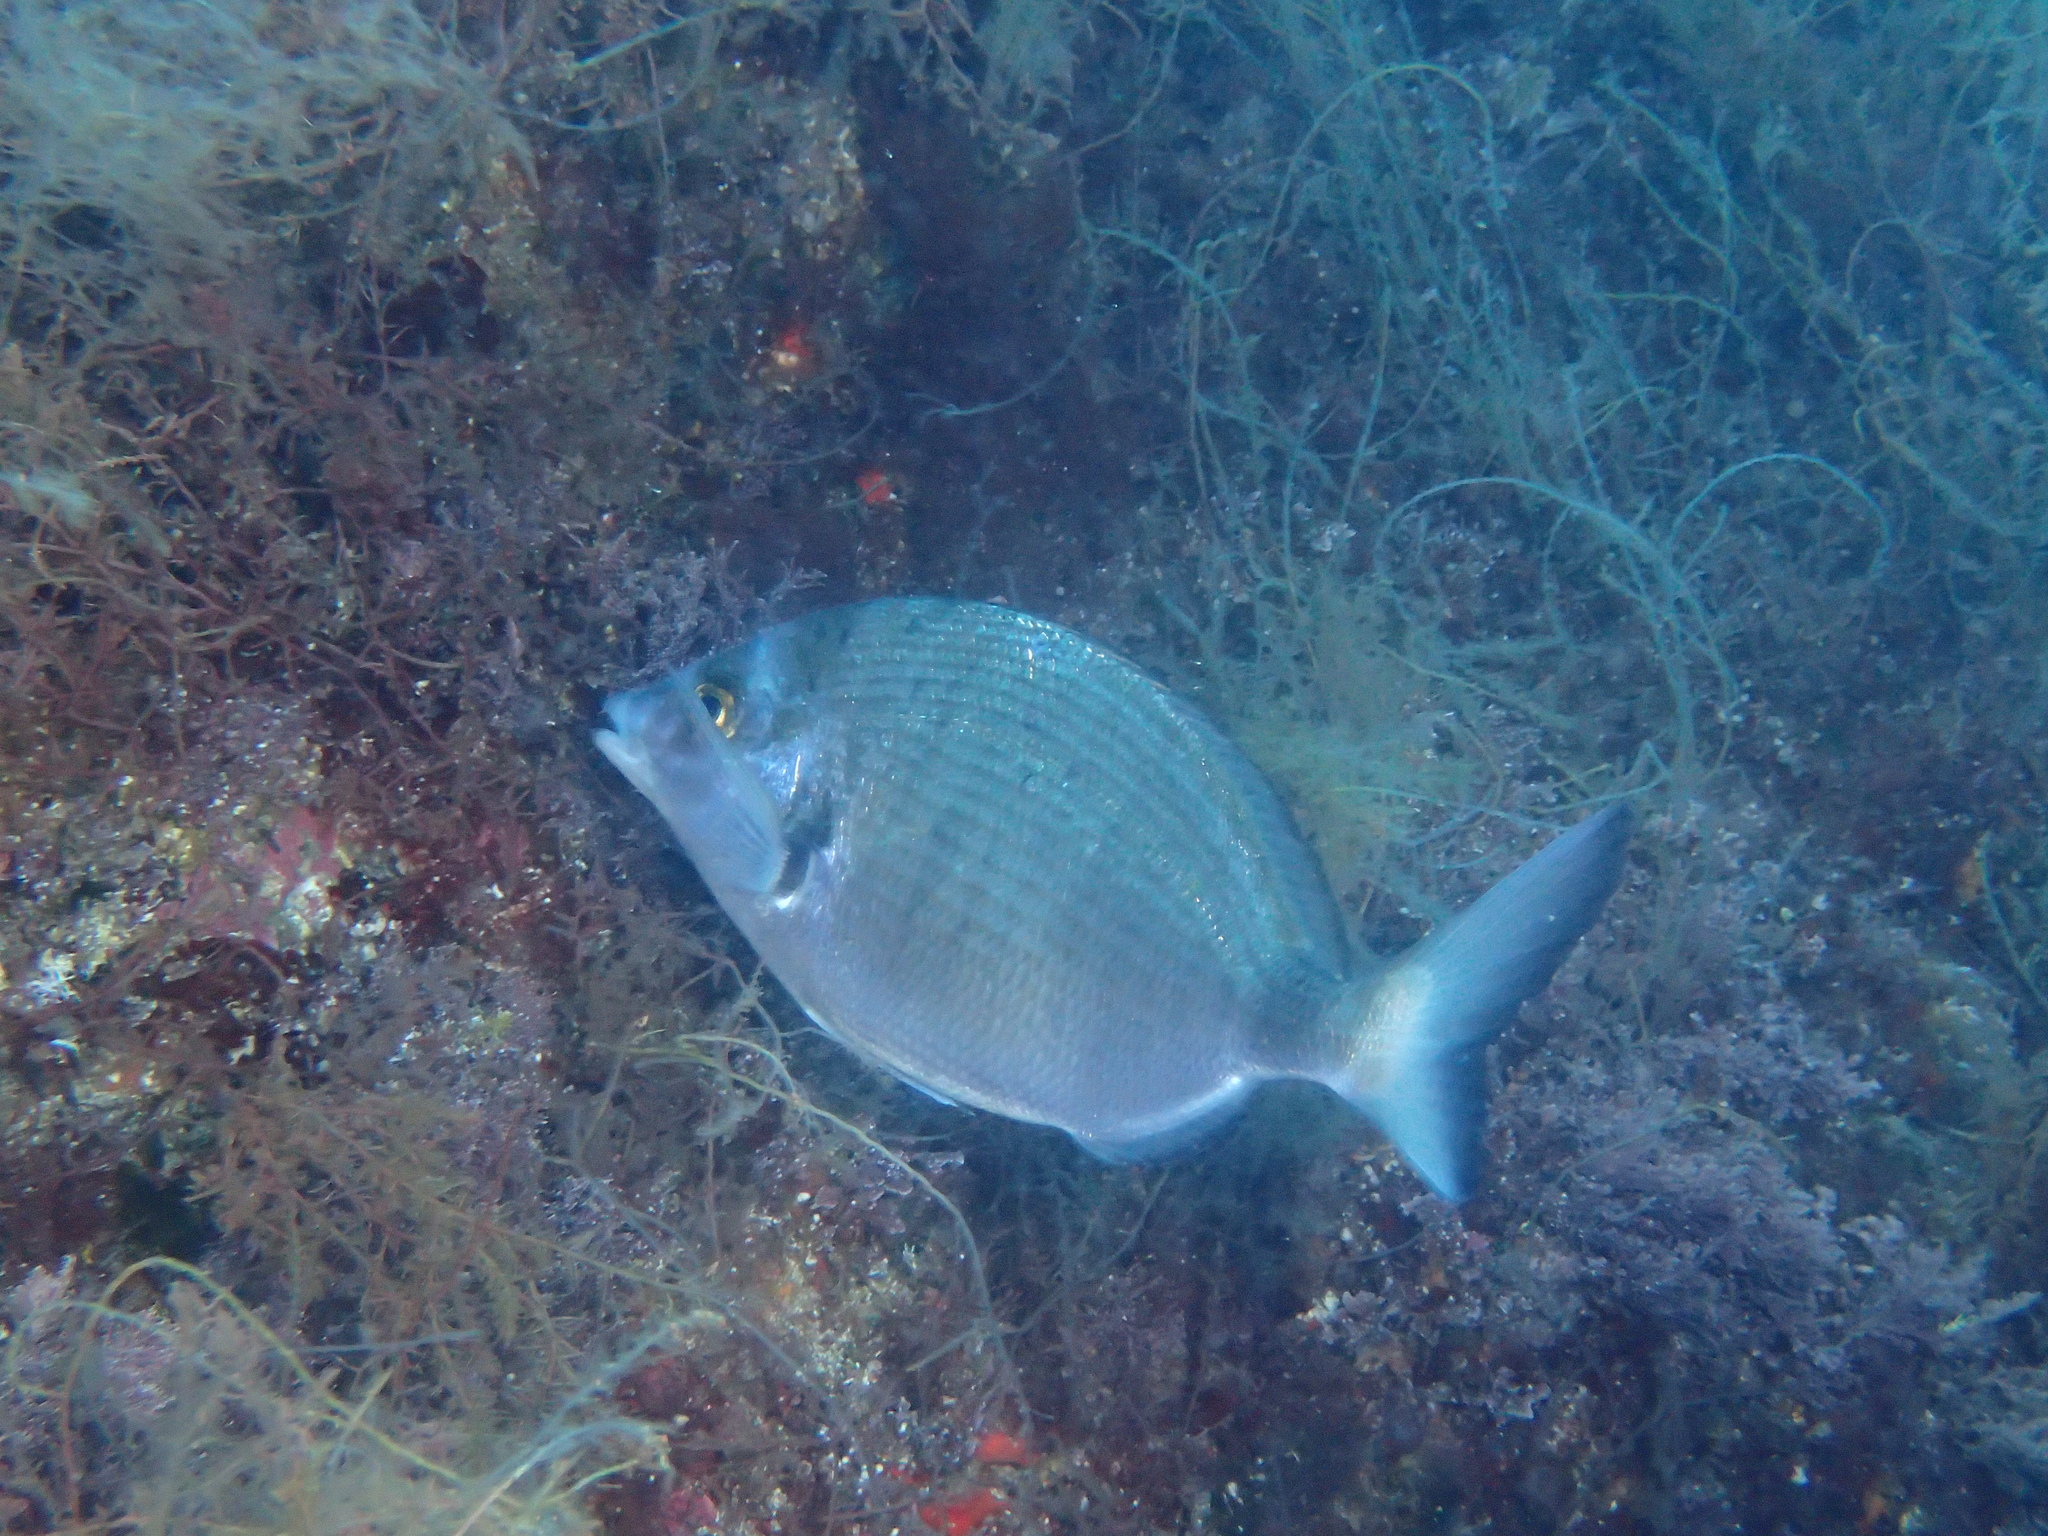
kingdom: Animalia
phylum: Chordata
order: Perciformes
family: Sparidae
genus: Diplodus
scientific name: Diplodus puntazzo
